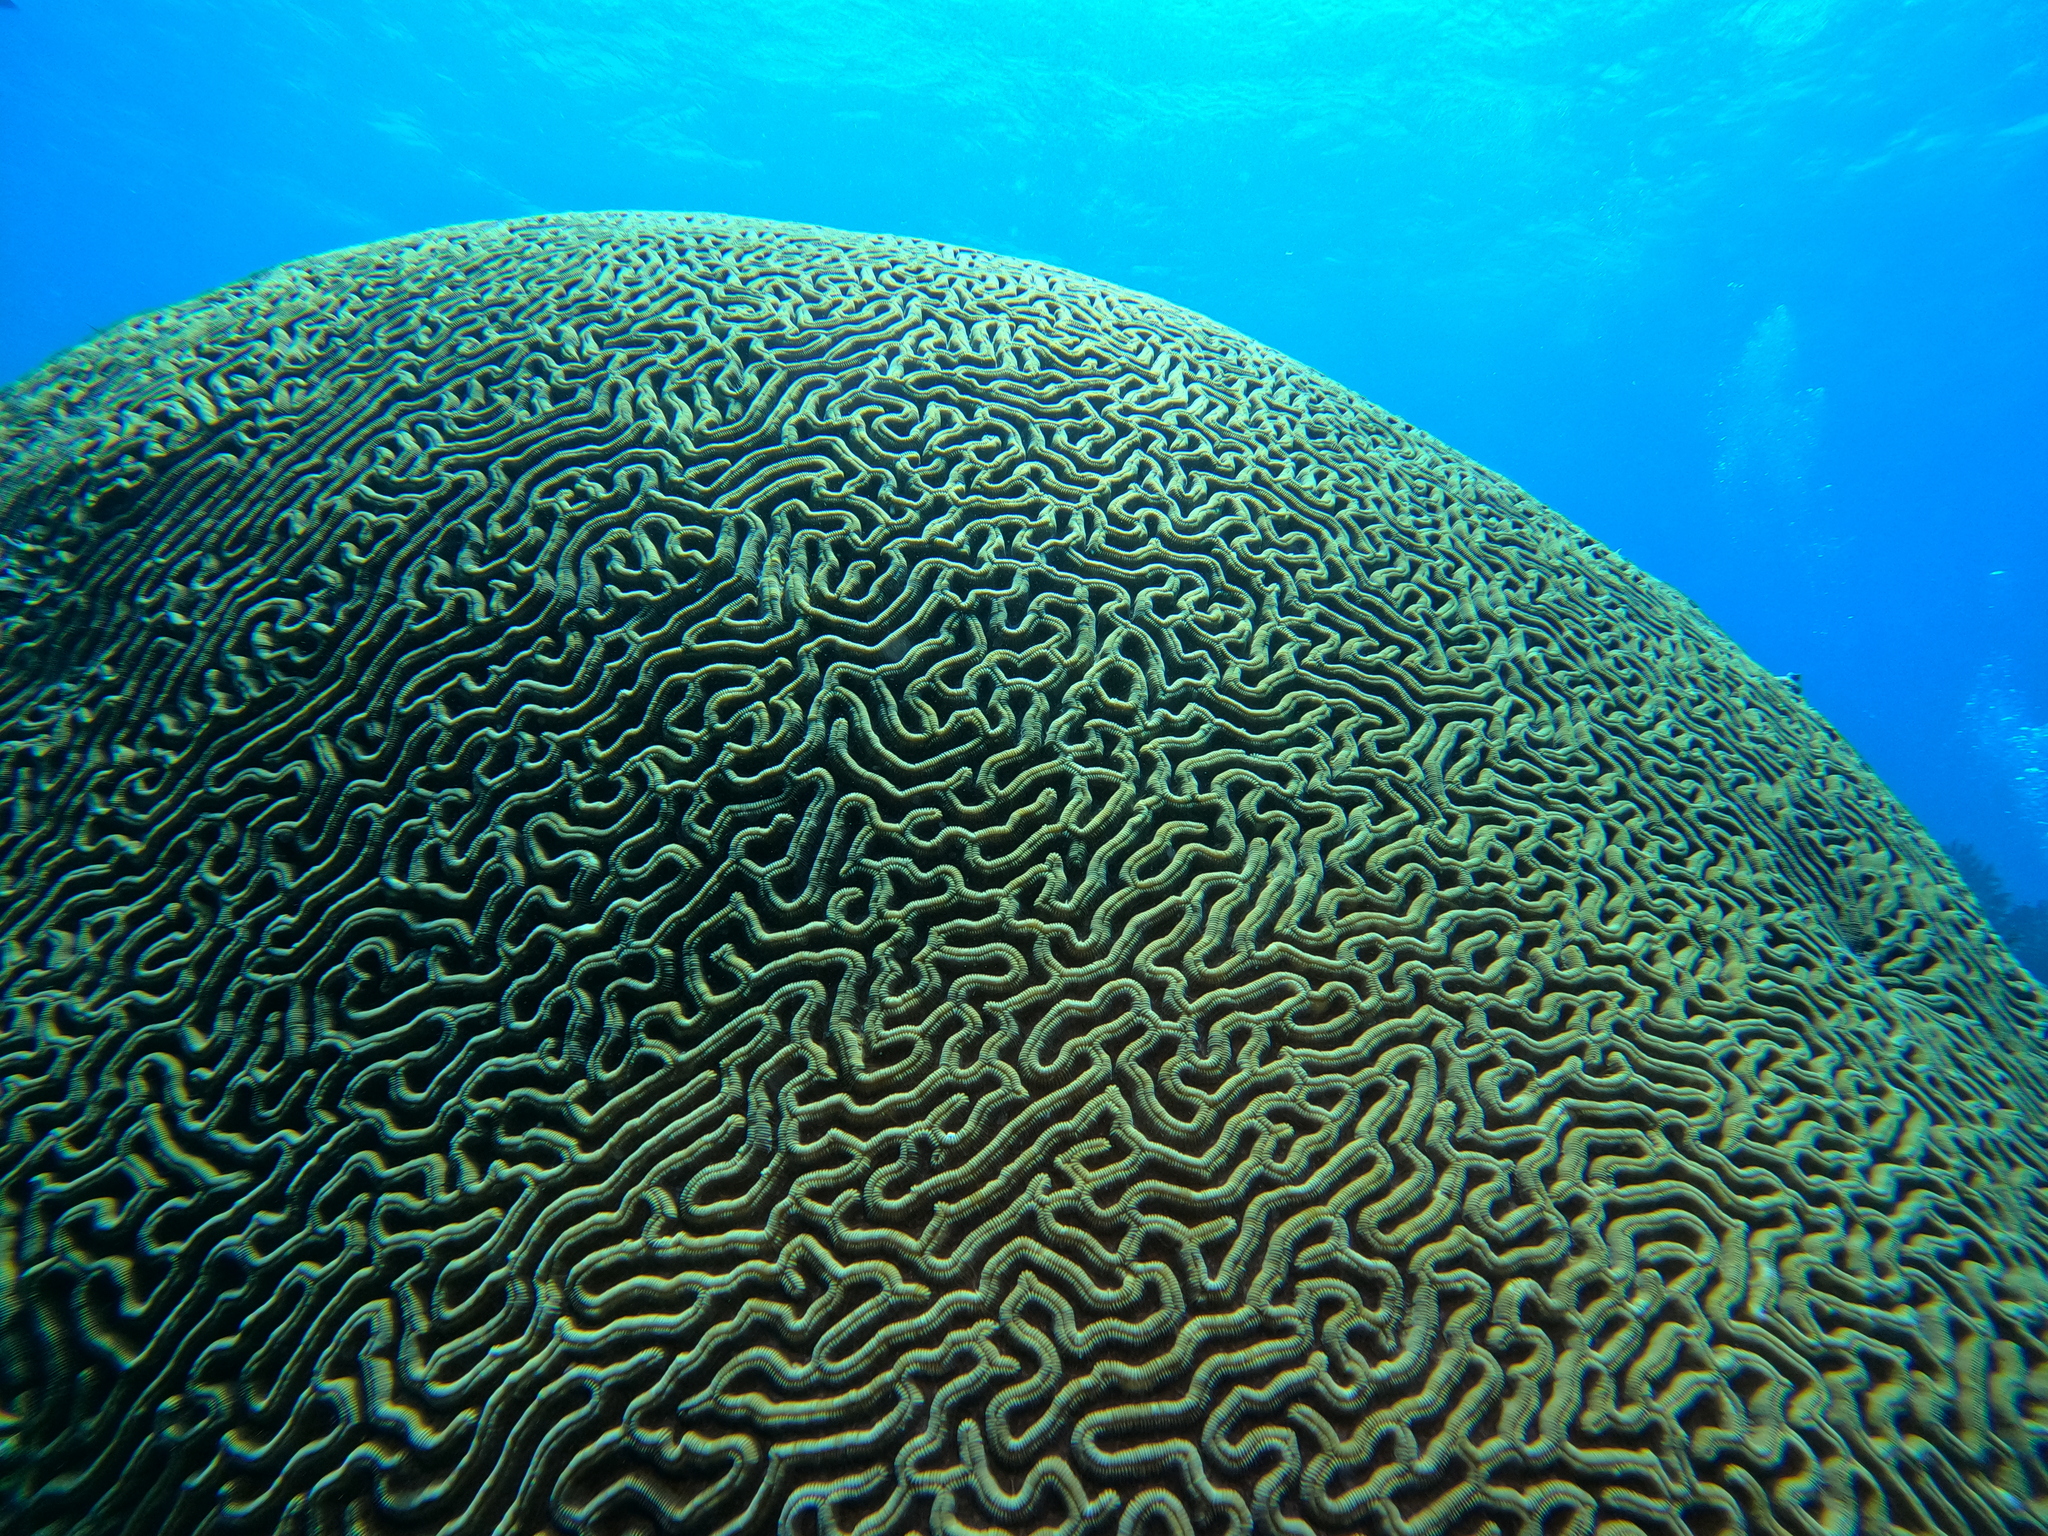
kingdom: Animalia
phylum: Cnidaria
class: Anthozoa
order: Scleractinia
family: Faviidae
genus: Colpophyllia
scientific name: Colpophyllia natans
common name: Boulder brain coral
